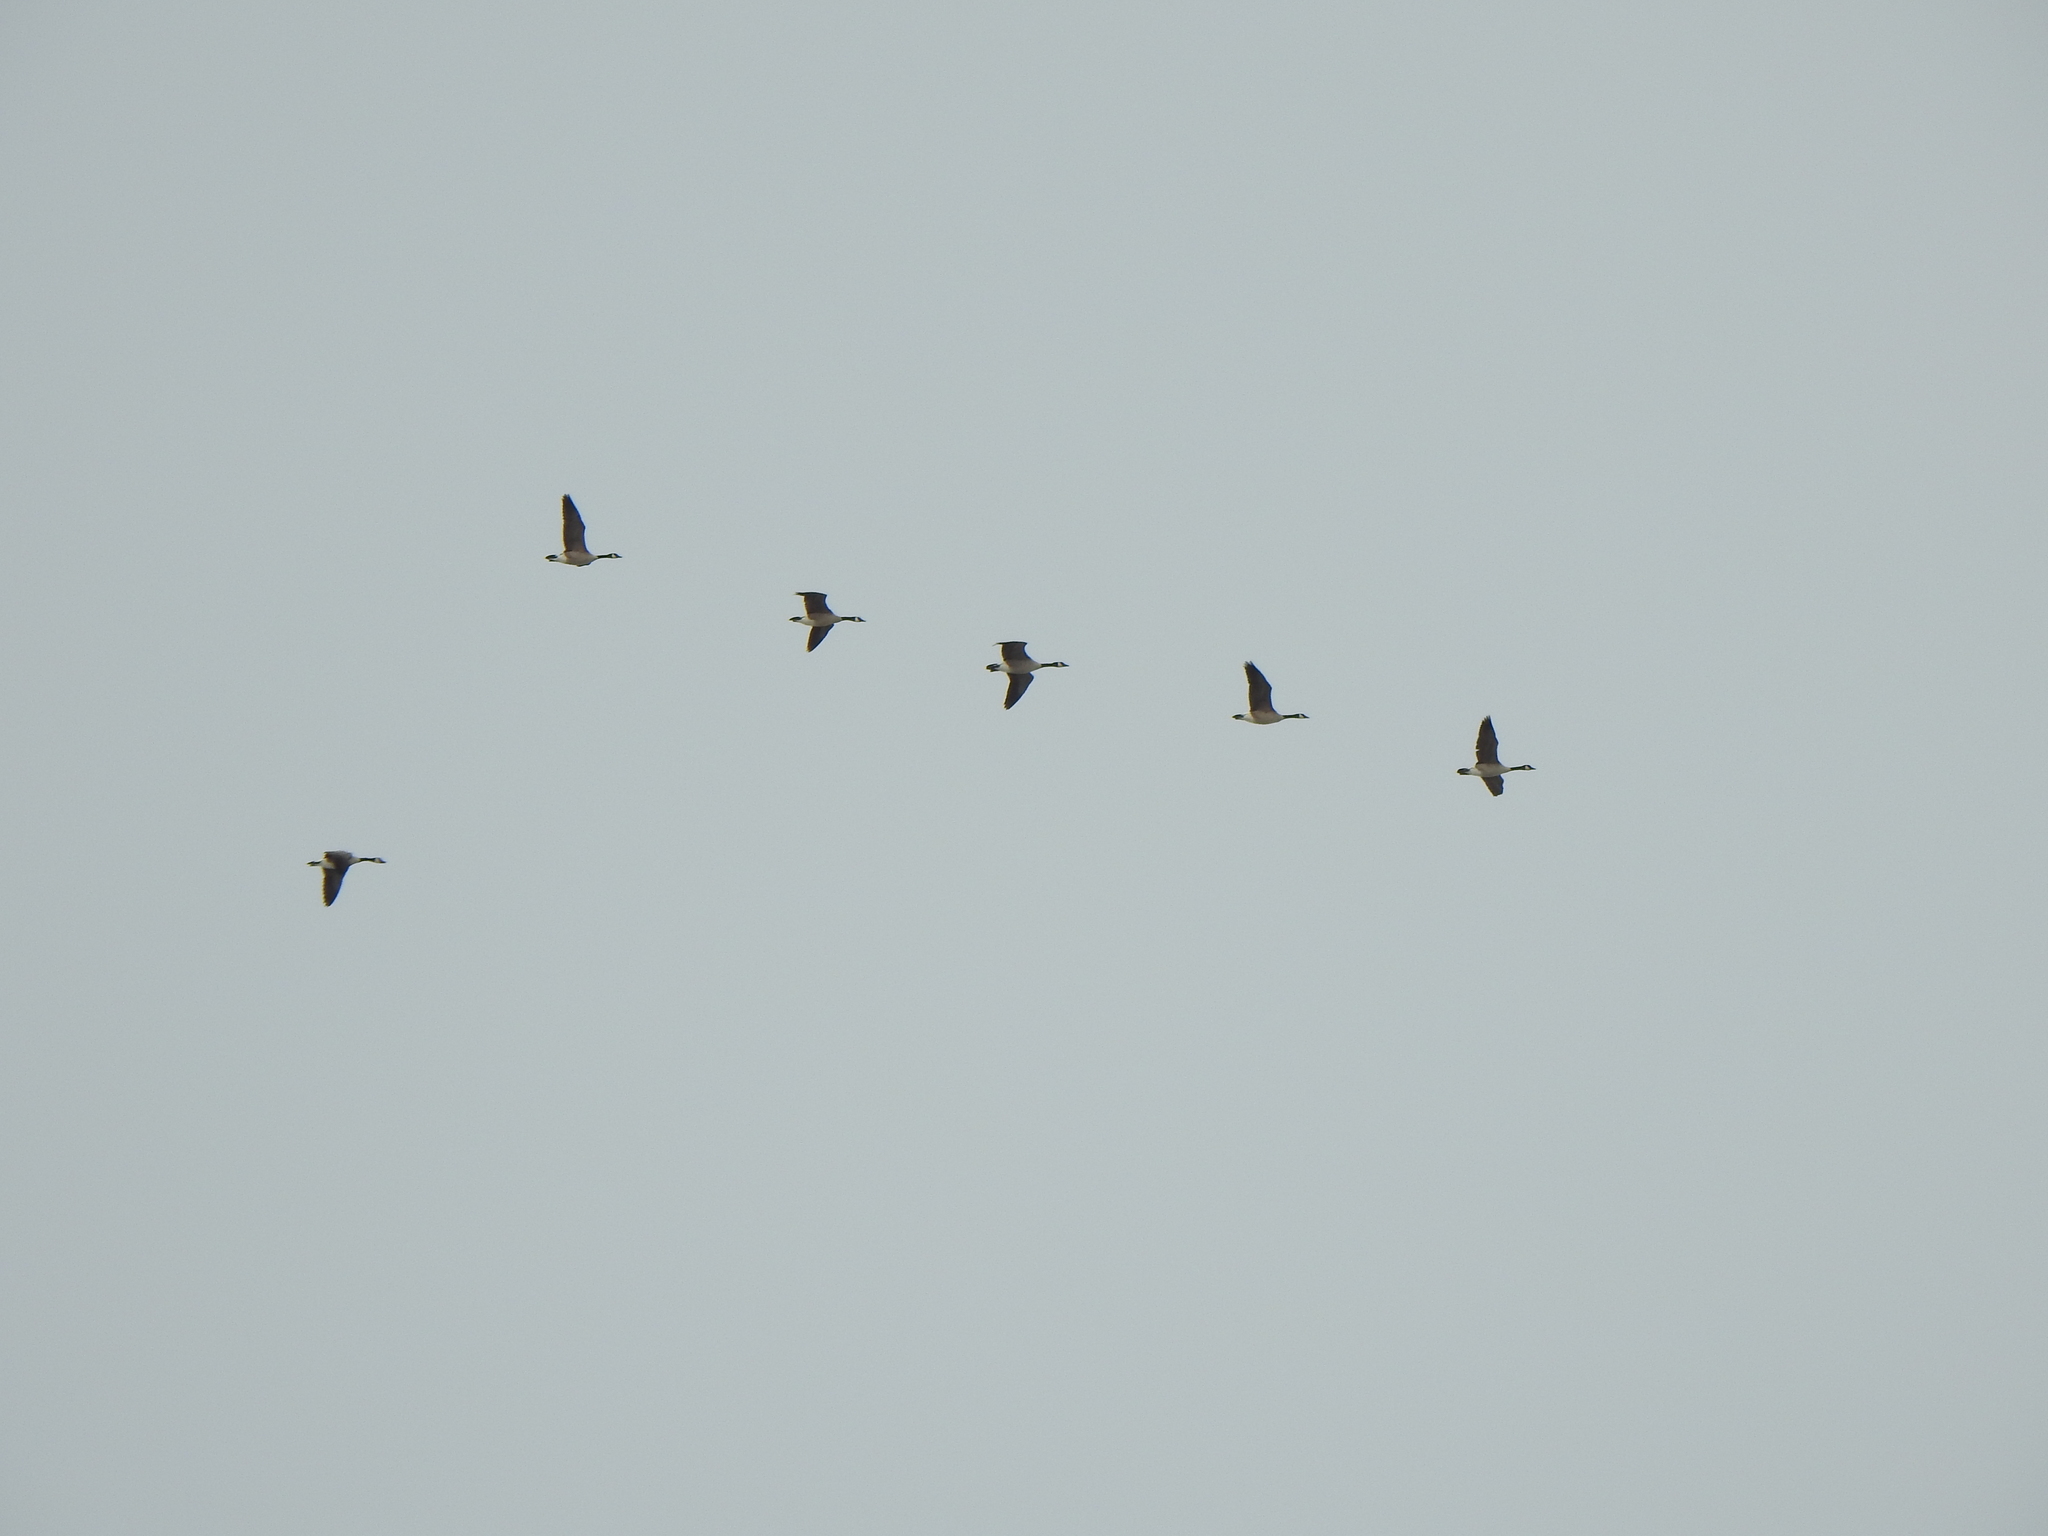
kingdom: Animalia
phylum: Chordata
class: Aves
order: Anseriformes
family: Anatidae
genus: Branta
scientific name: Branta canadensis
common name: Canada goose
